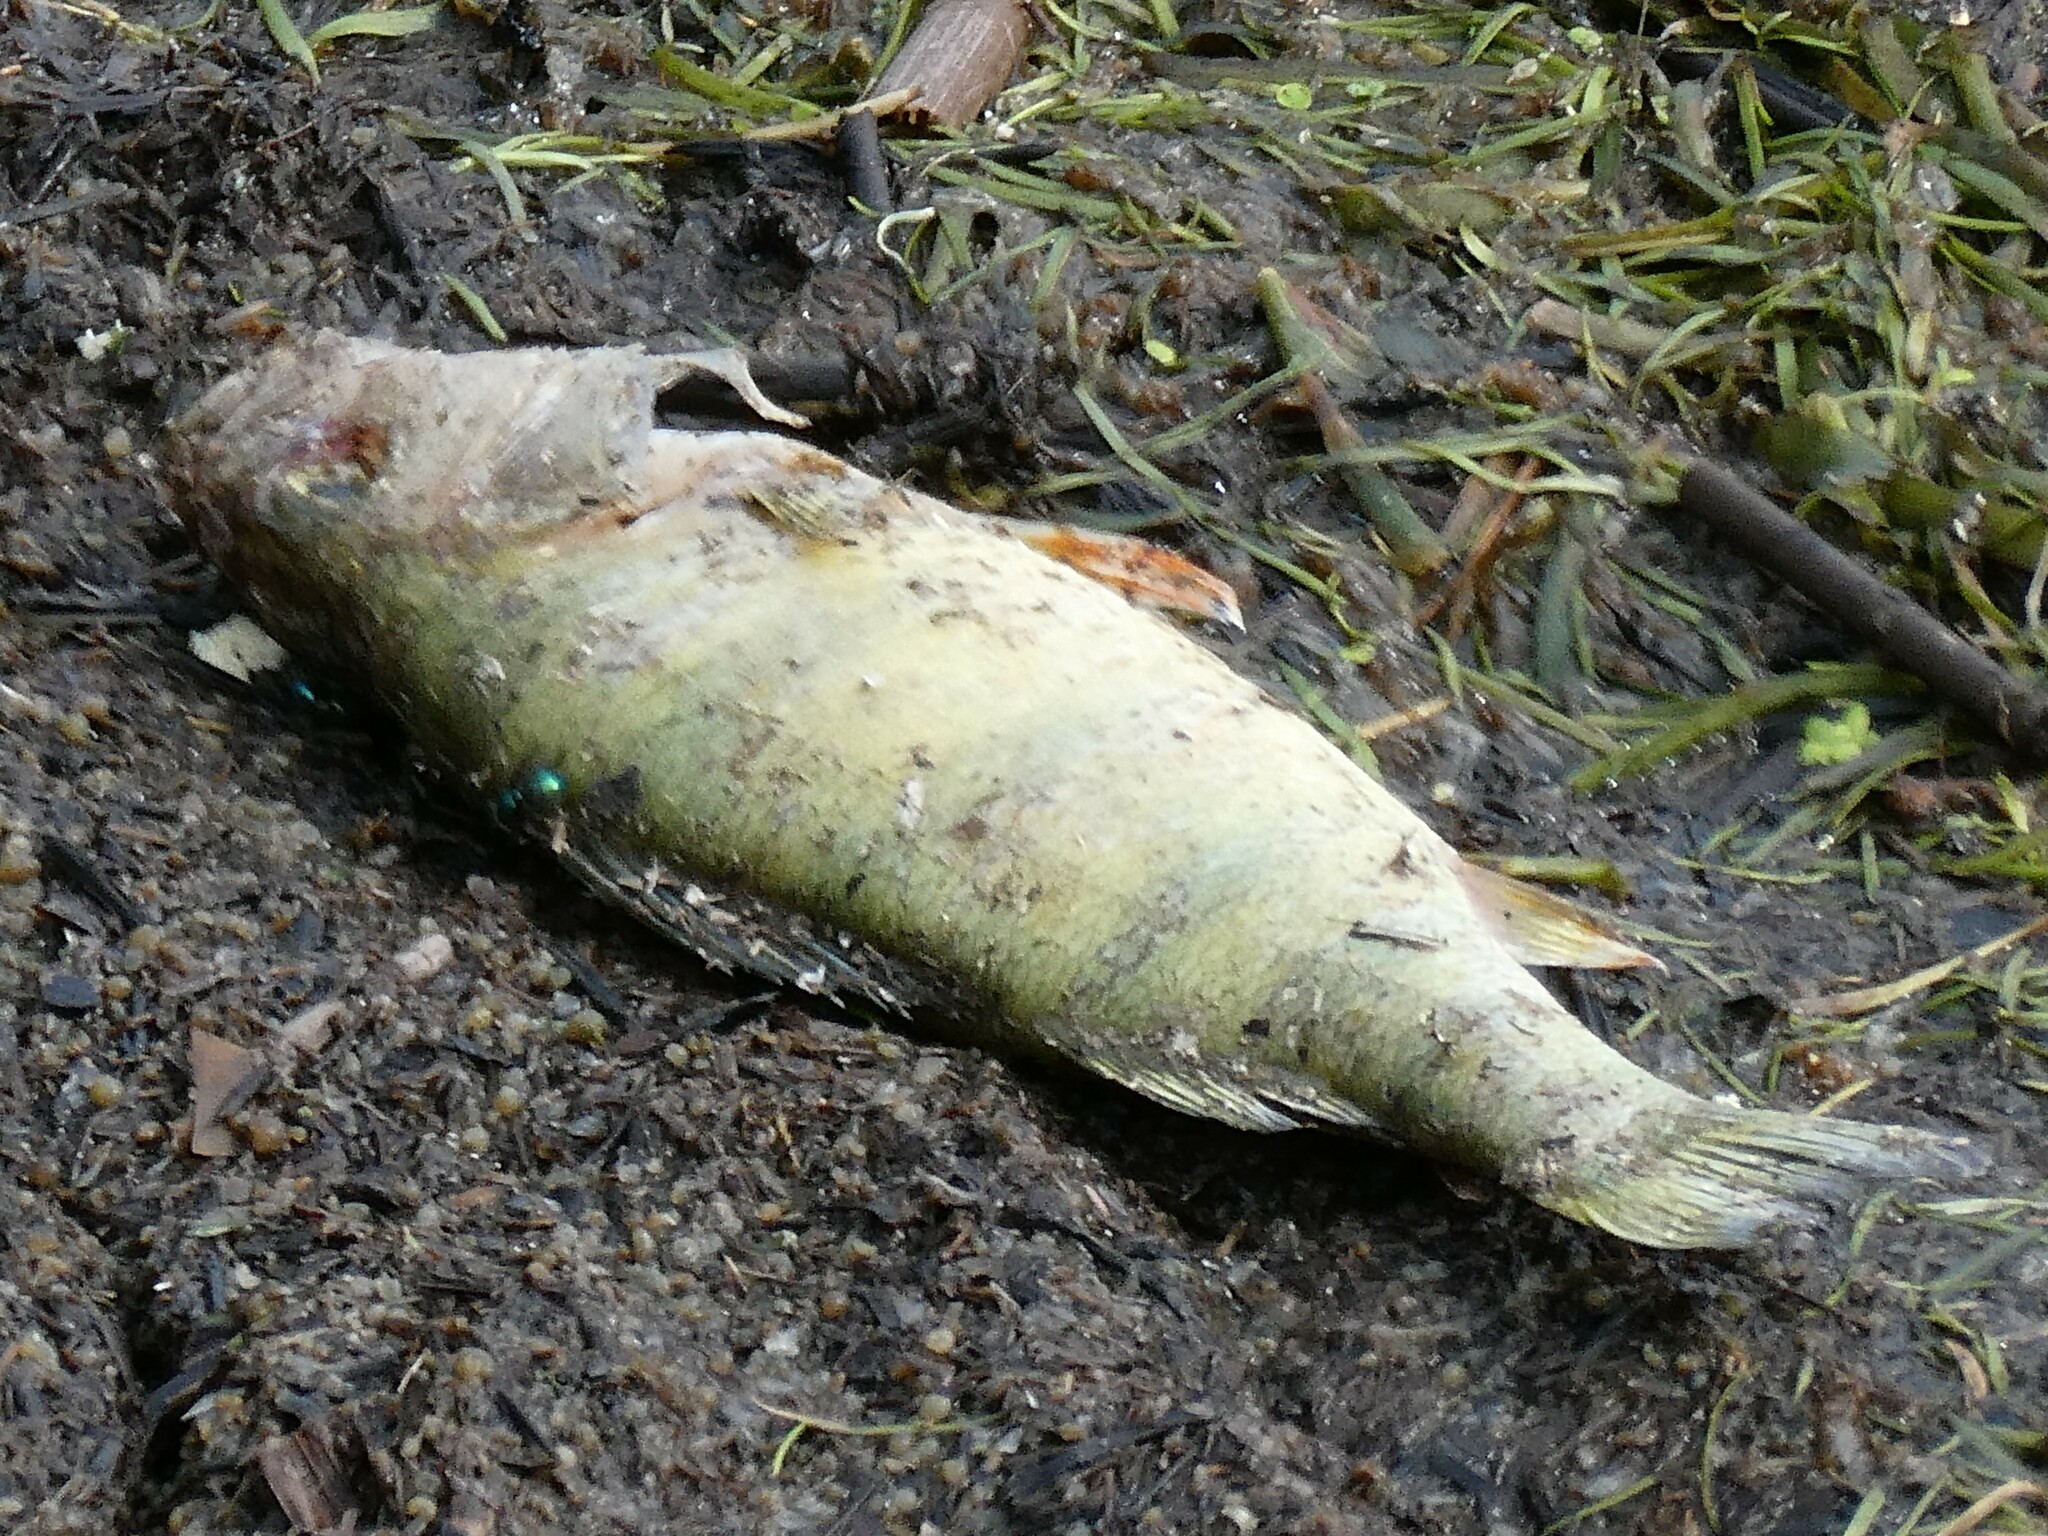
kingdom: Animalia
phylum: Chordata
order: Perciformes
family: Percidae
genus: Perca
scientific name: Perca flavescens
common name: Yellow perch
